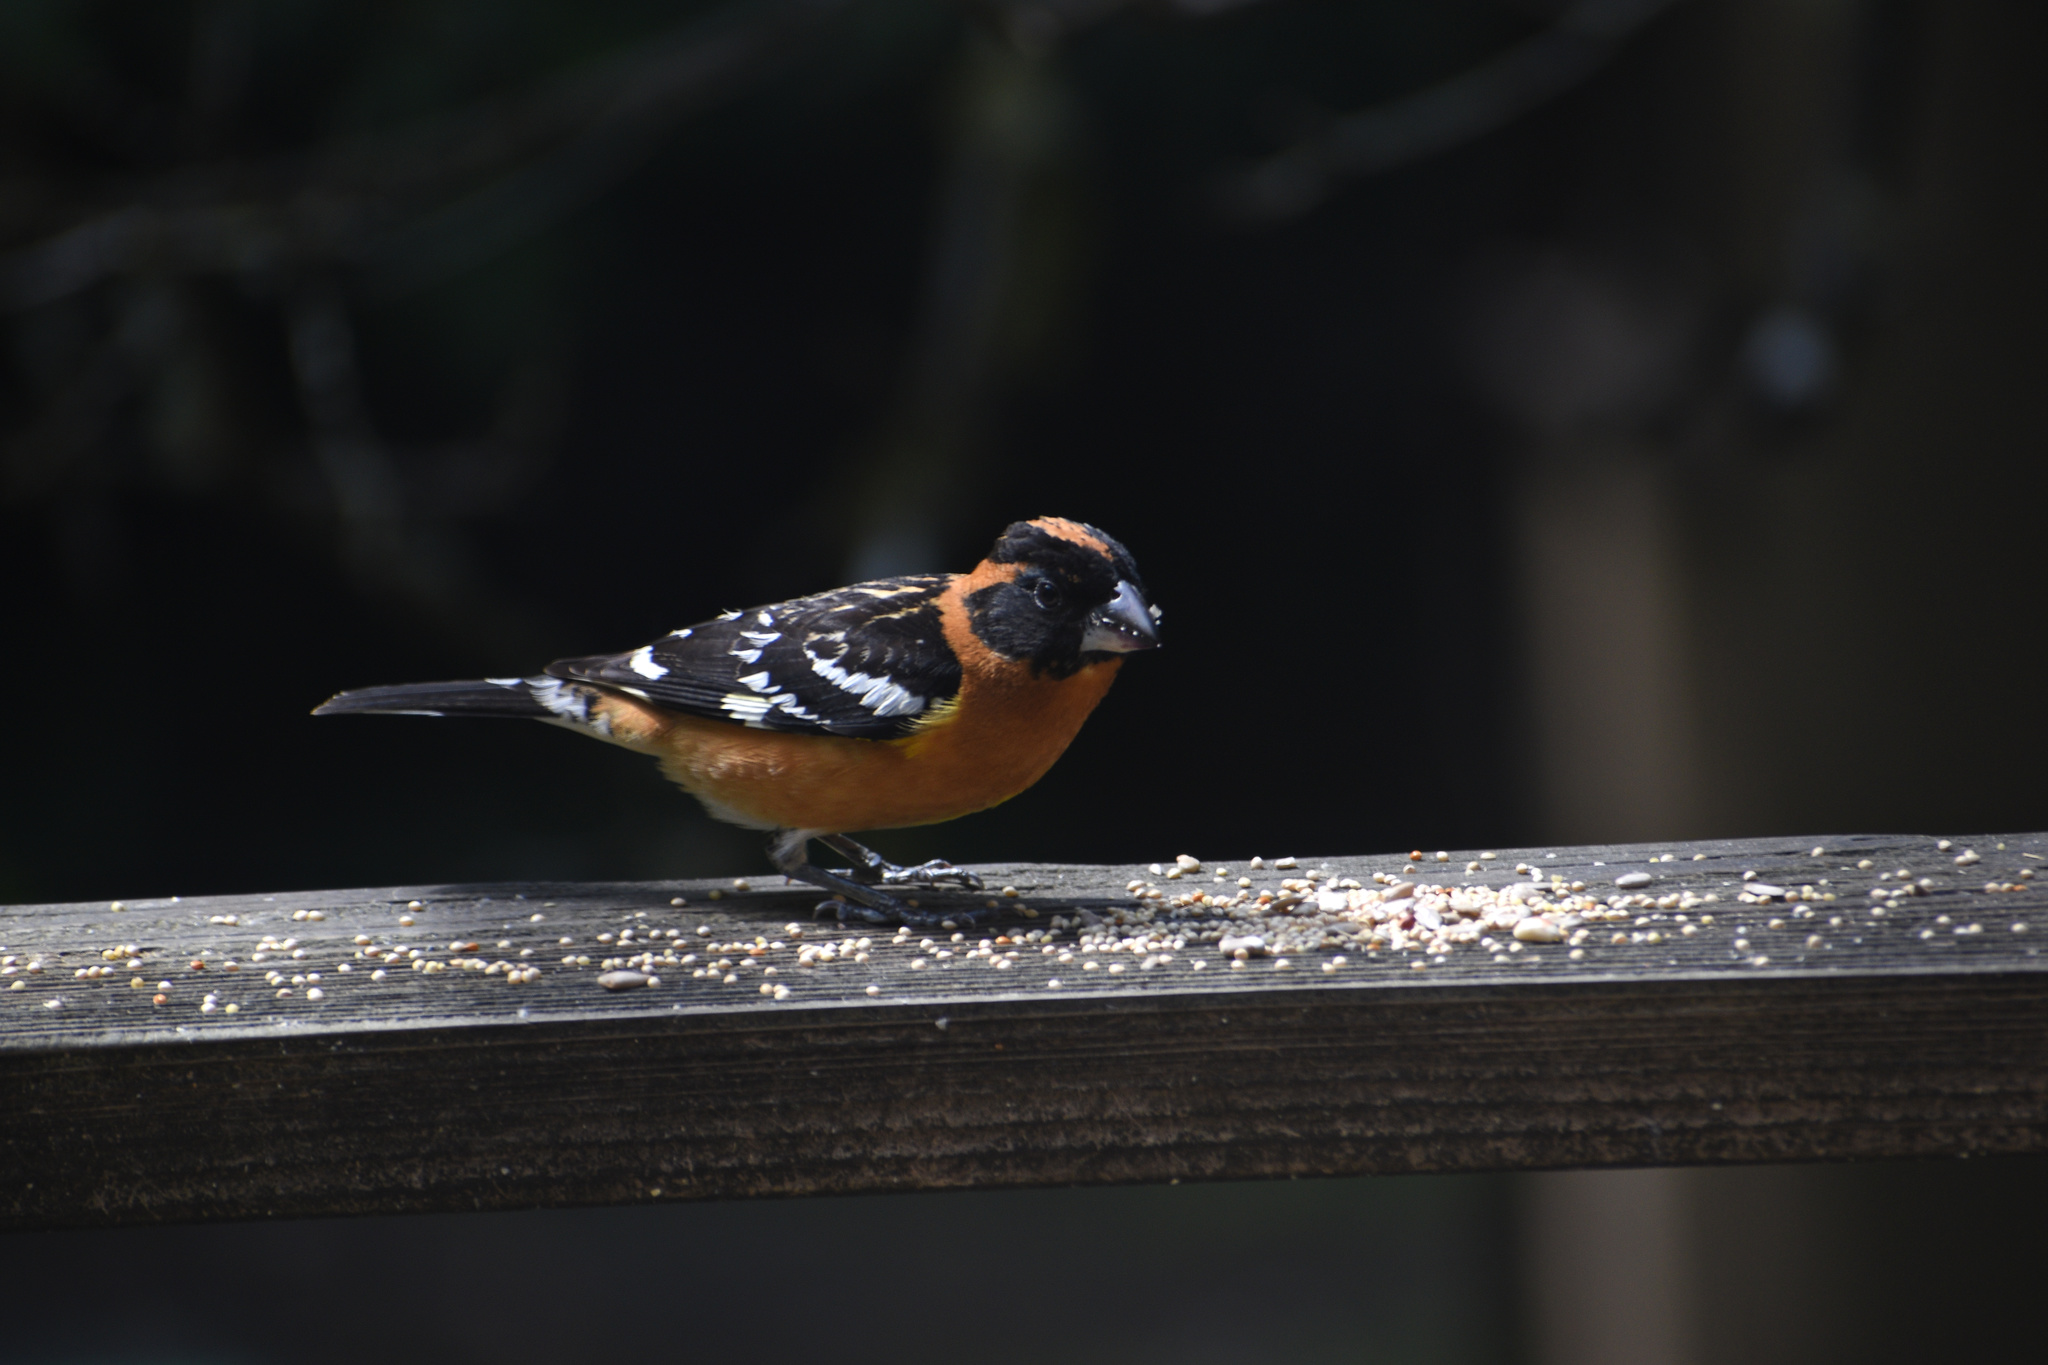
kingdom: Animalia
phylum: Chordata
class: Aves
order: Passeriformes
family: Cardinalidae
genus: Pheucticus
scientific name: Pheucticus melanocephalus
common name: Black-headed grosbeak
